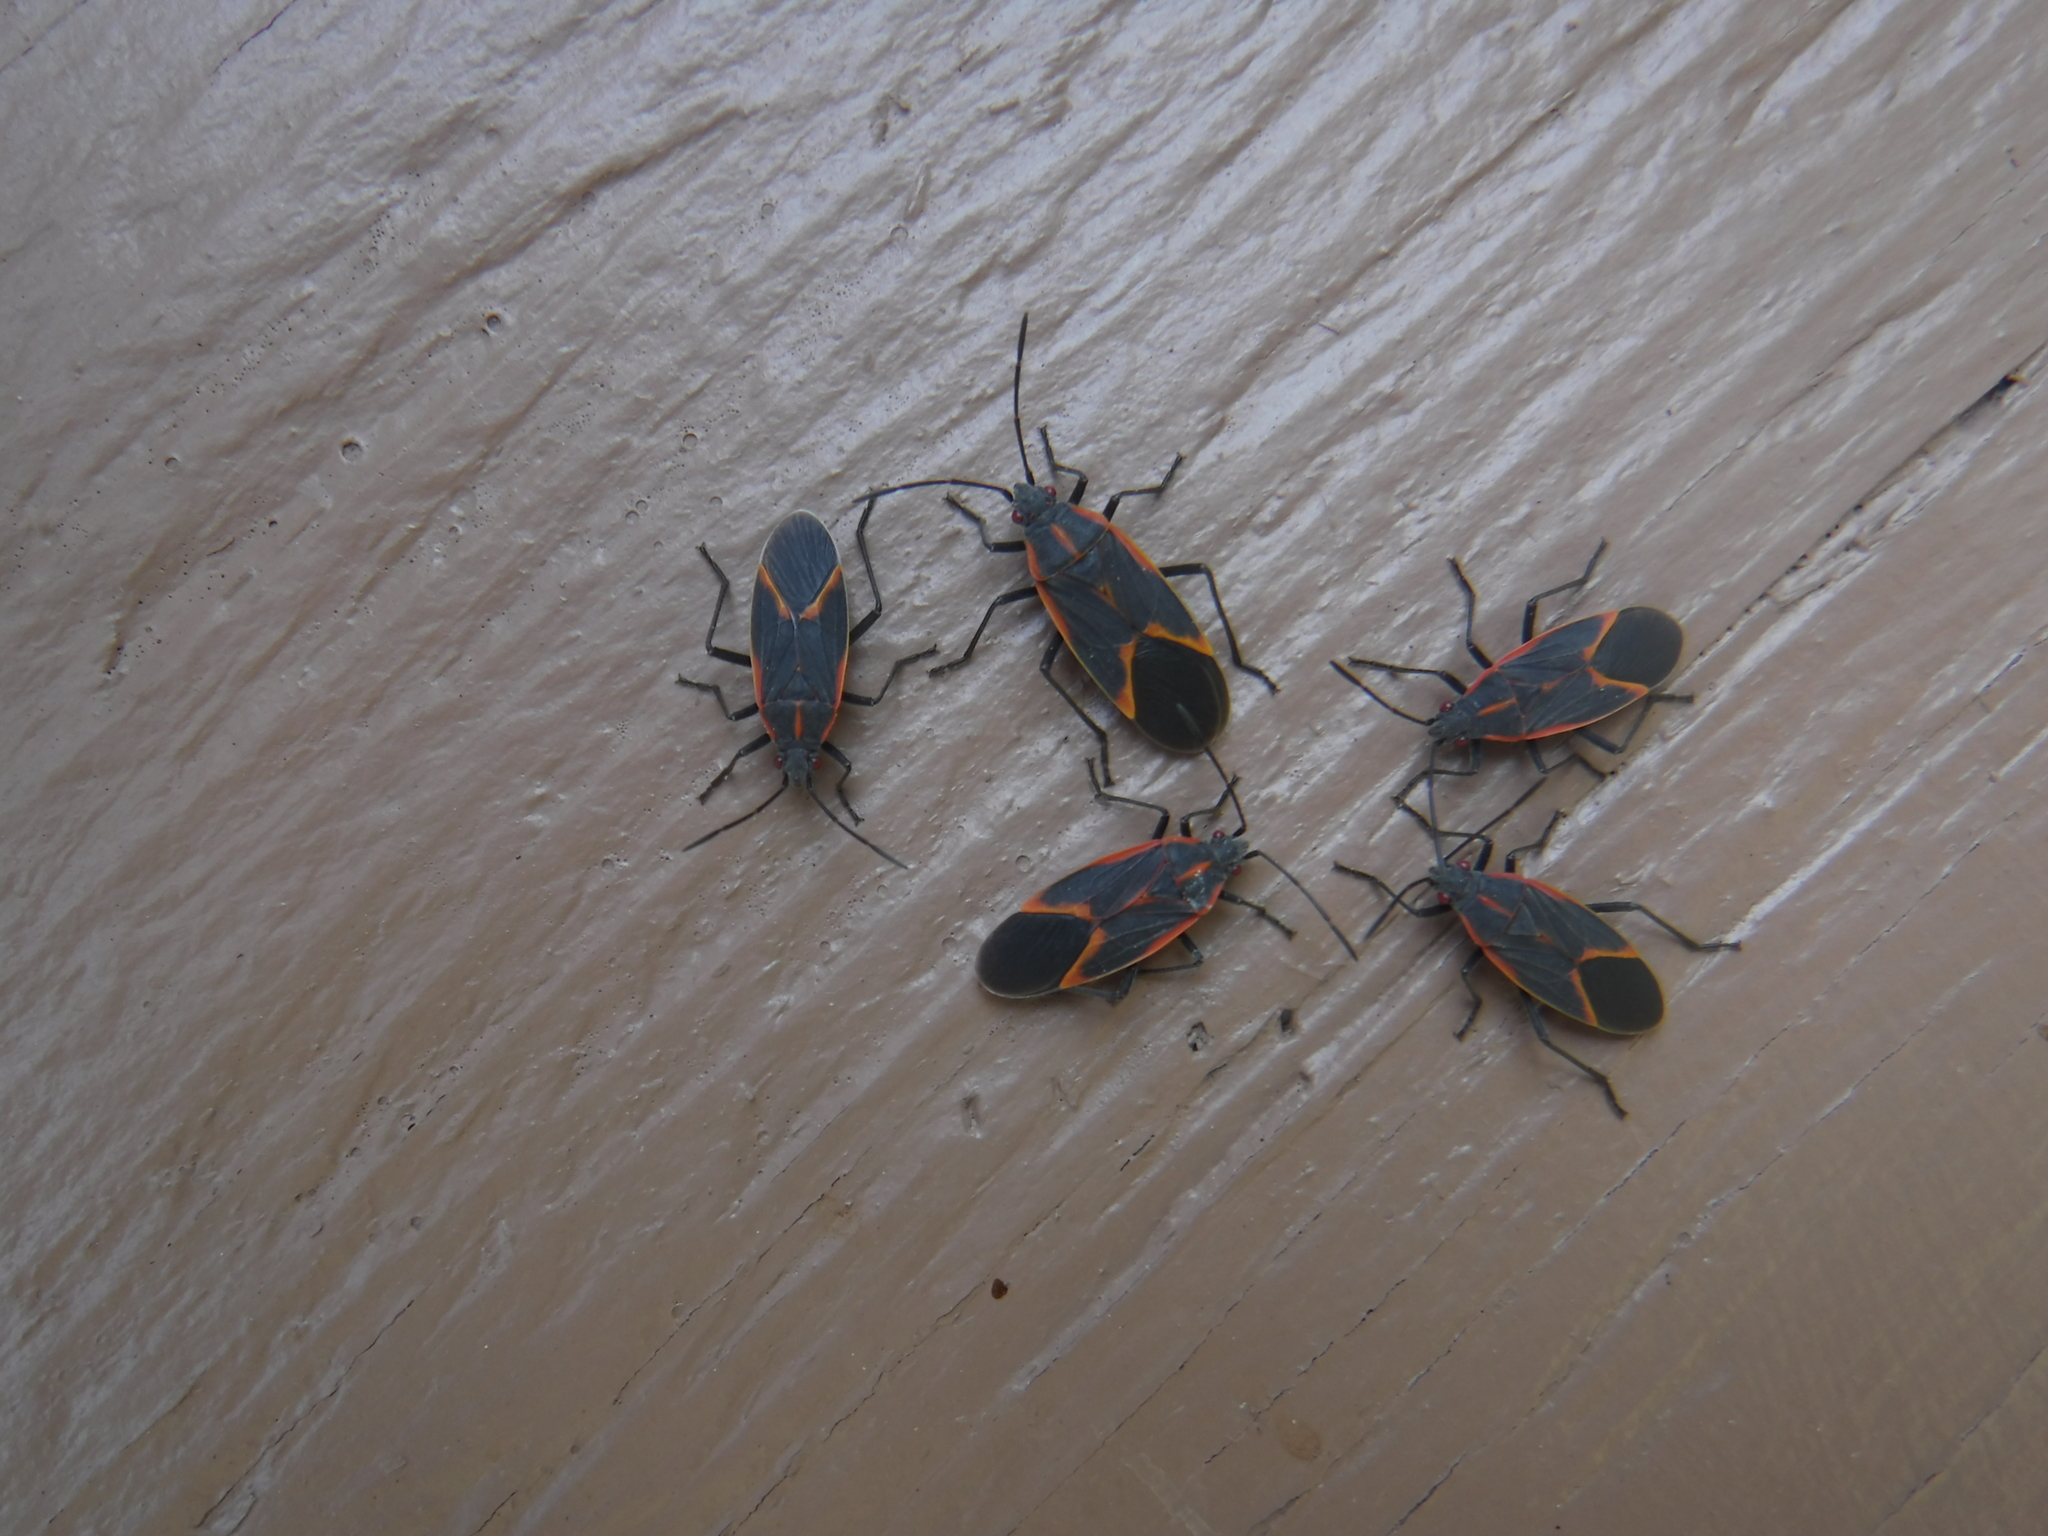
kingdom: Animalia
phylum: Arthropoda
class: Insecta
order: Hemiptera
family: Rhopalidae
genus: Boisea
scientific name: Boisea trivittata
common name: Boxelder bug
